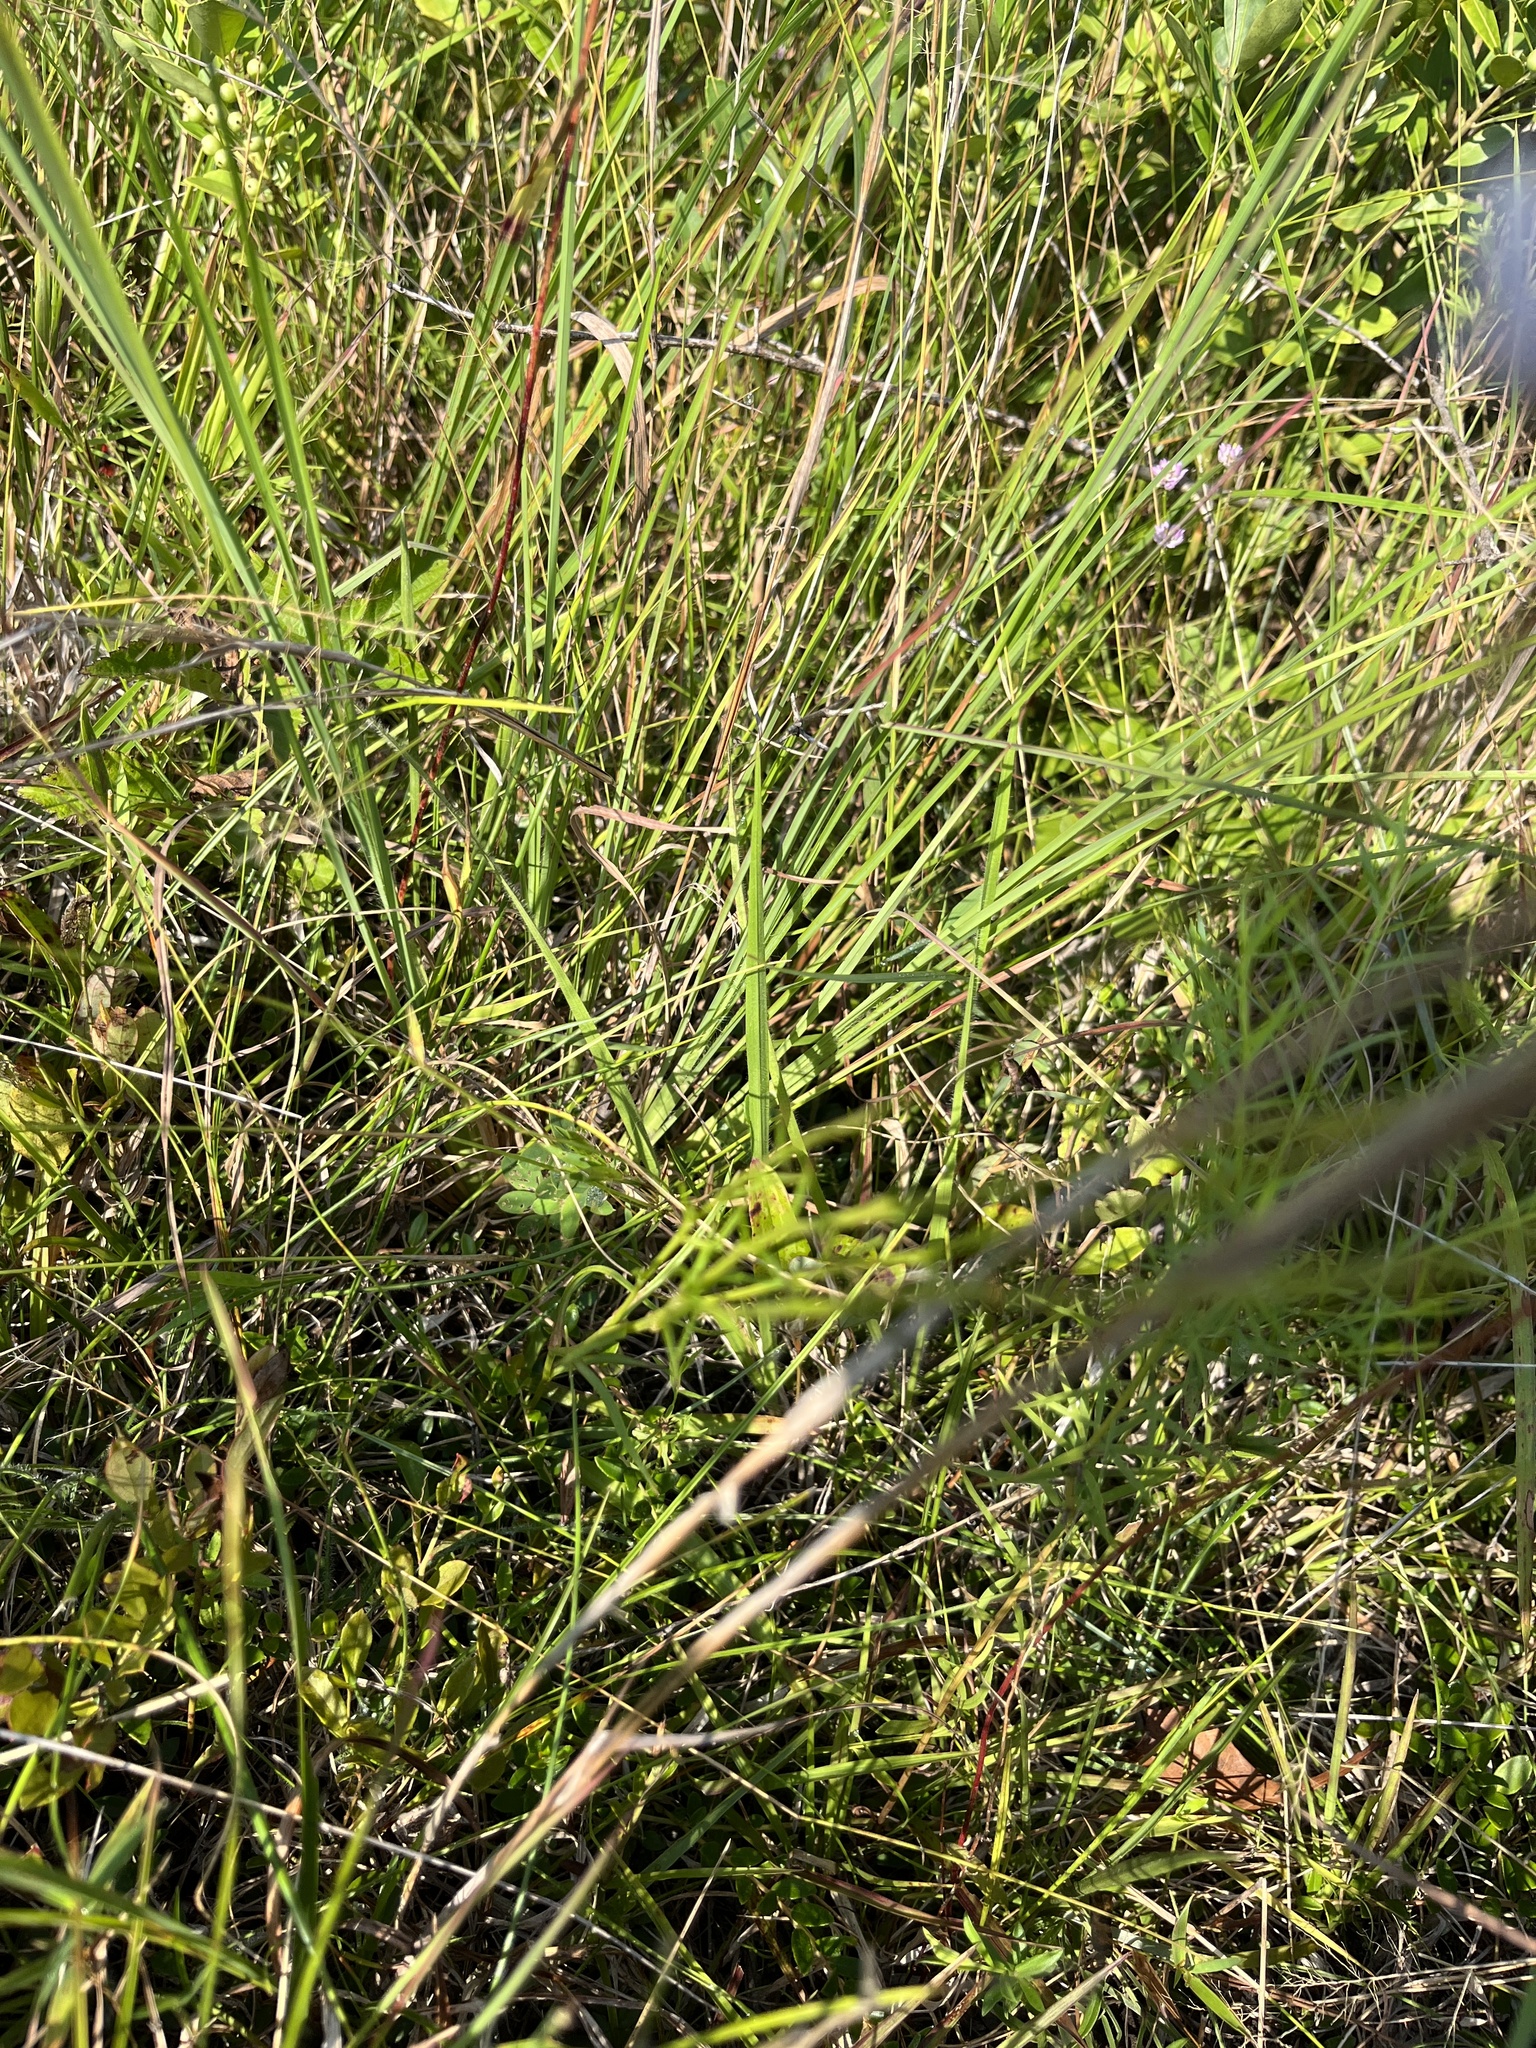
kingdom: Plantae
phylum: Tracheophyta
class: Magnoliopsida
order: Asterales
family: Asteraceae
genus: Marshallia
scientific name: Marshallia graminifolia
